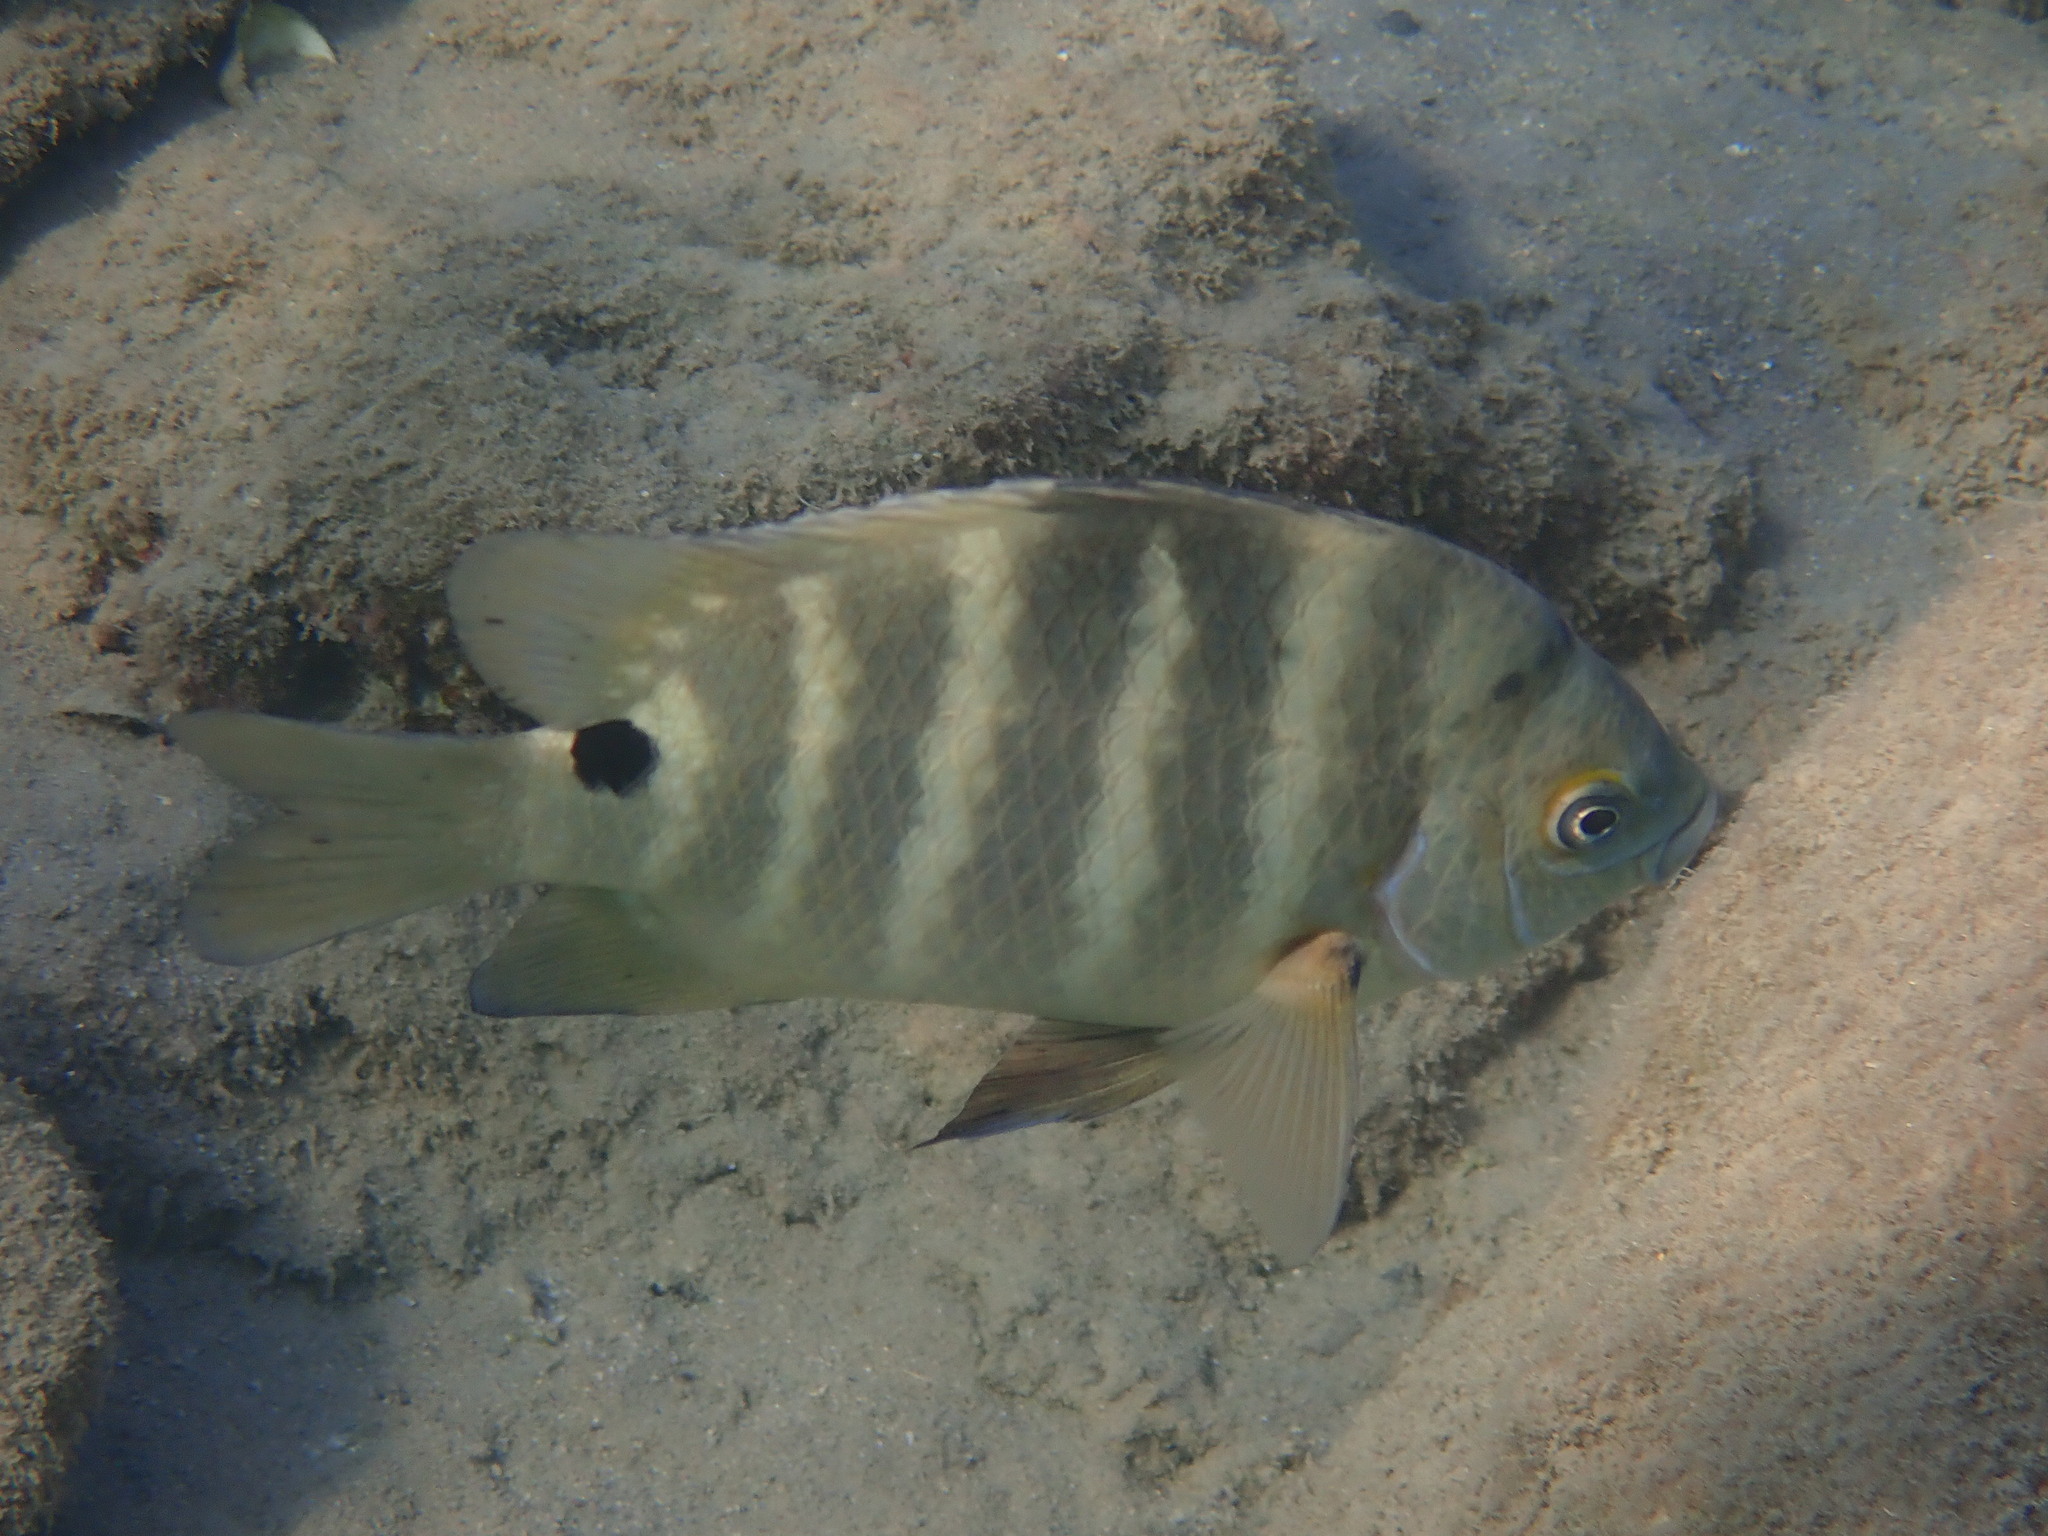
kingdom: Animalia
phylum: Chordata
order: Perciformes
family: Pomacentridae
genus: Abudefduf
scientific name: Abudefduf sordidus
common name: Blackspot sergeant
